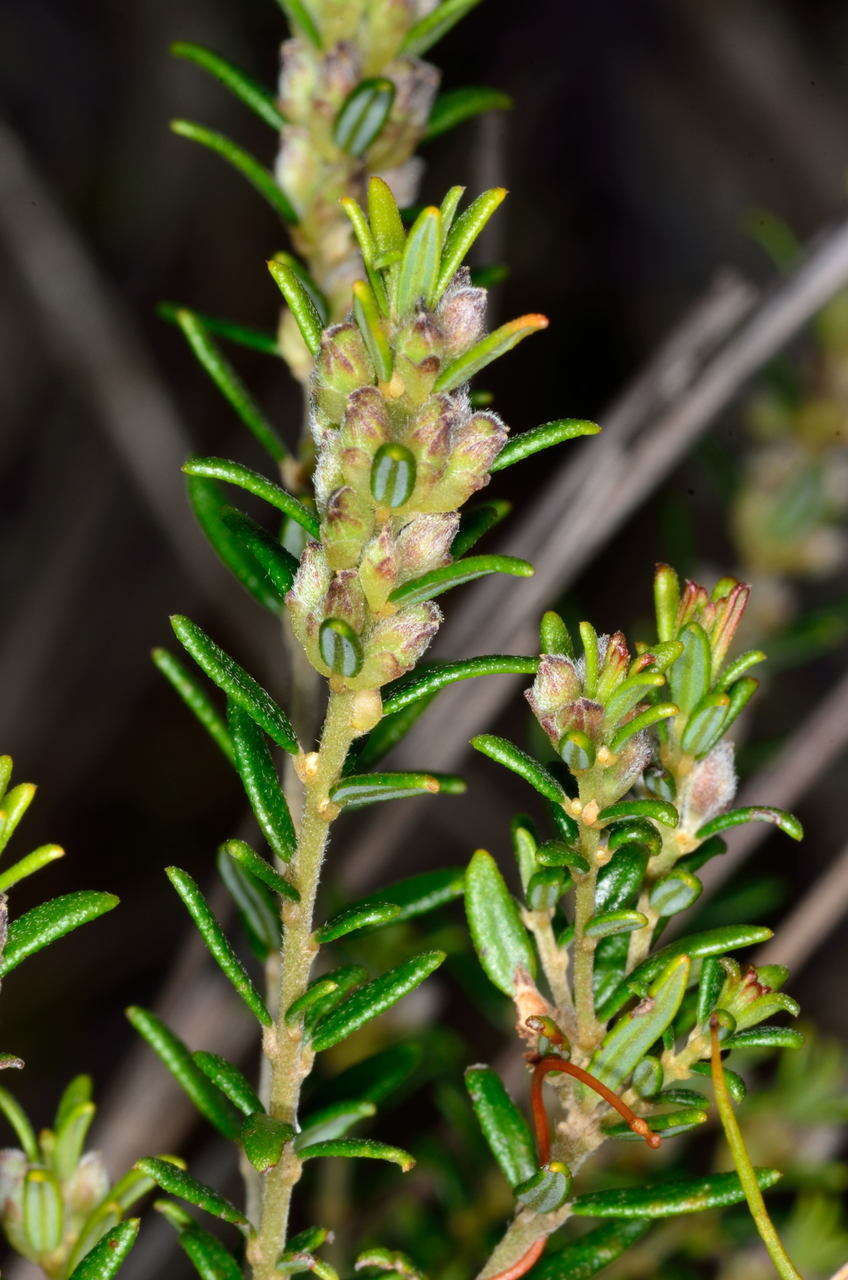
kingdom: Plantae
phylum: Tracheophyta
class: Magnoliopsida
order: Fabales
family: Fabaceae
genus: Aotus
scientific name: Aotus ericoides
